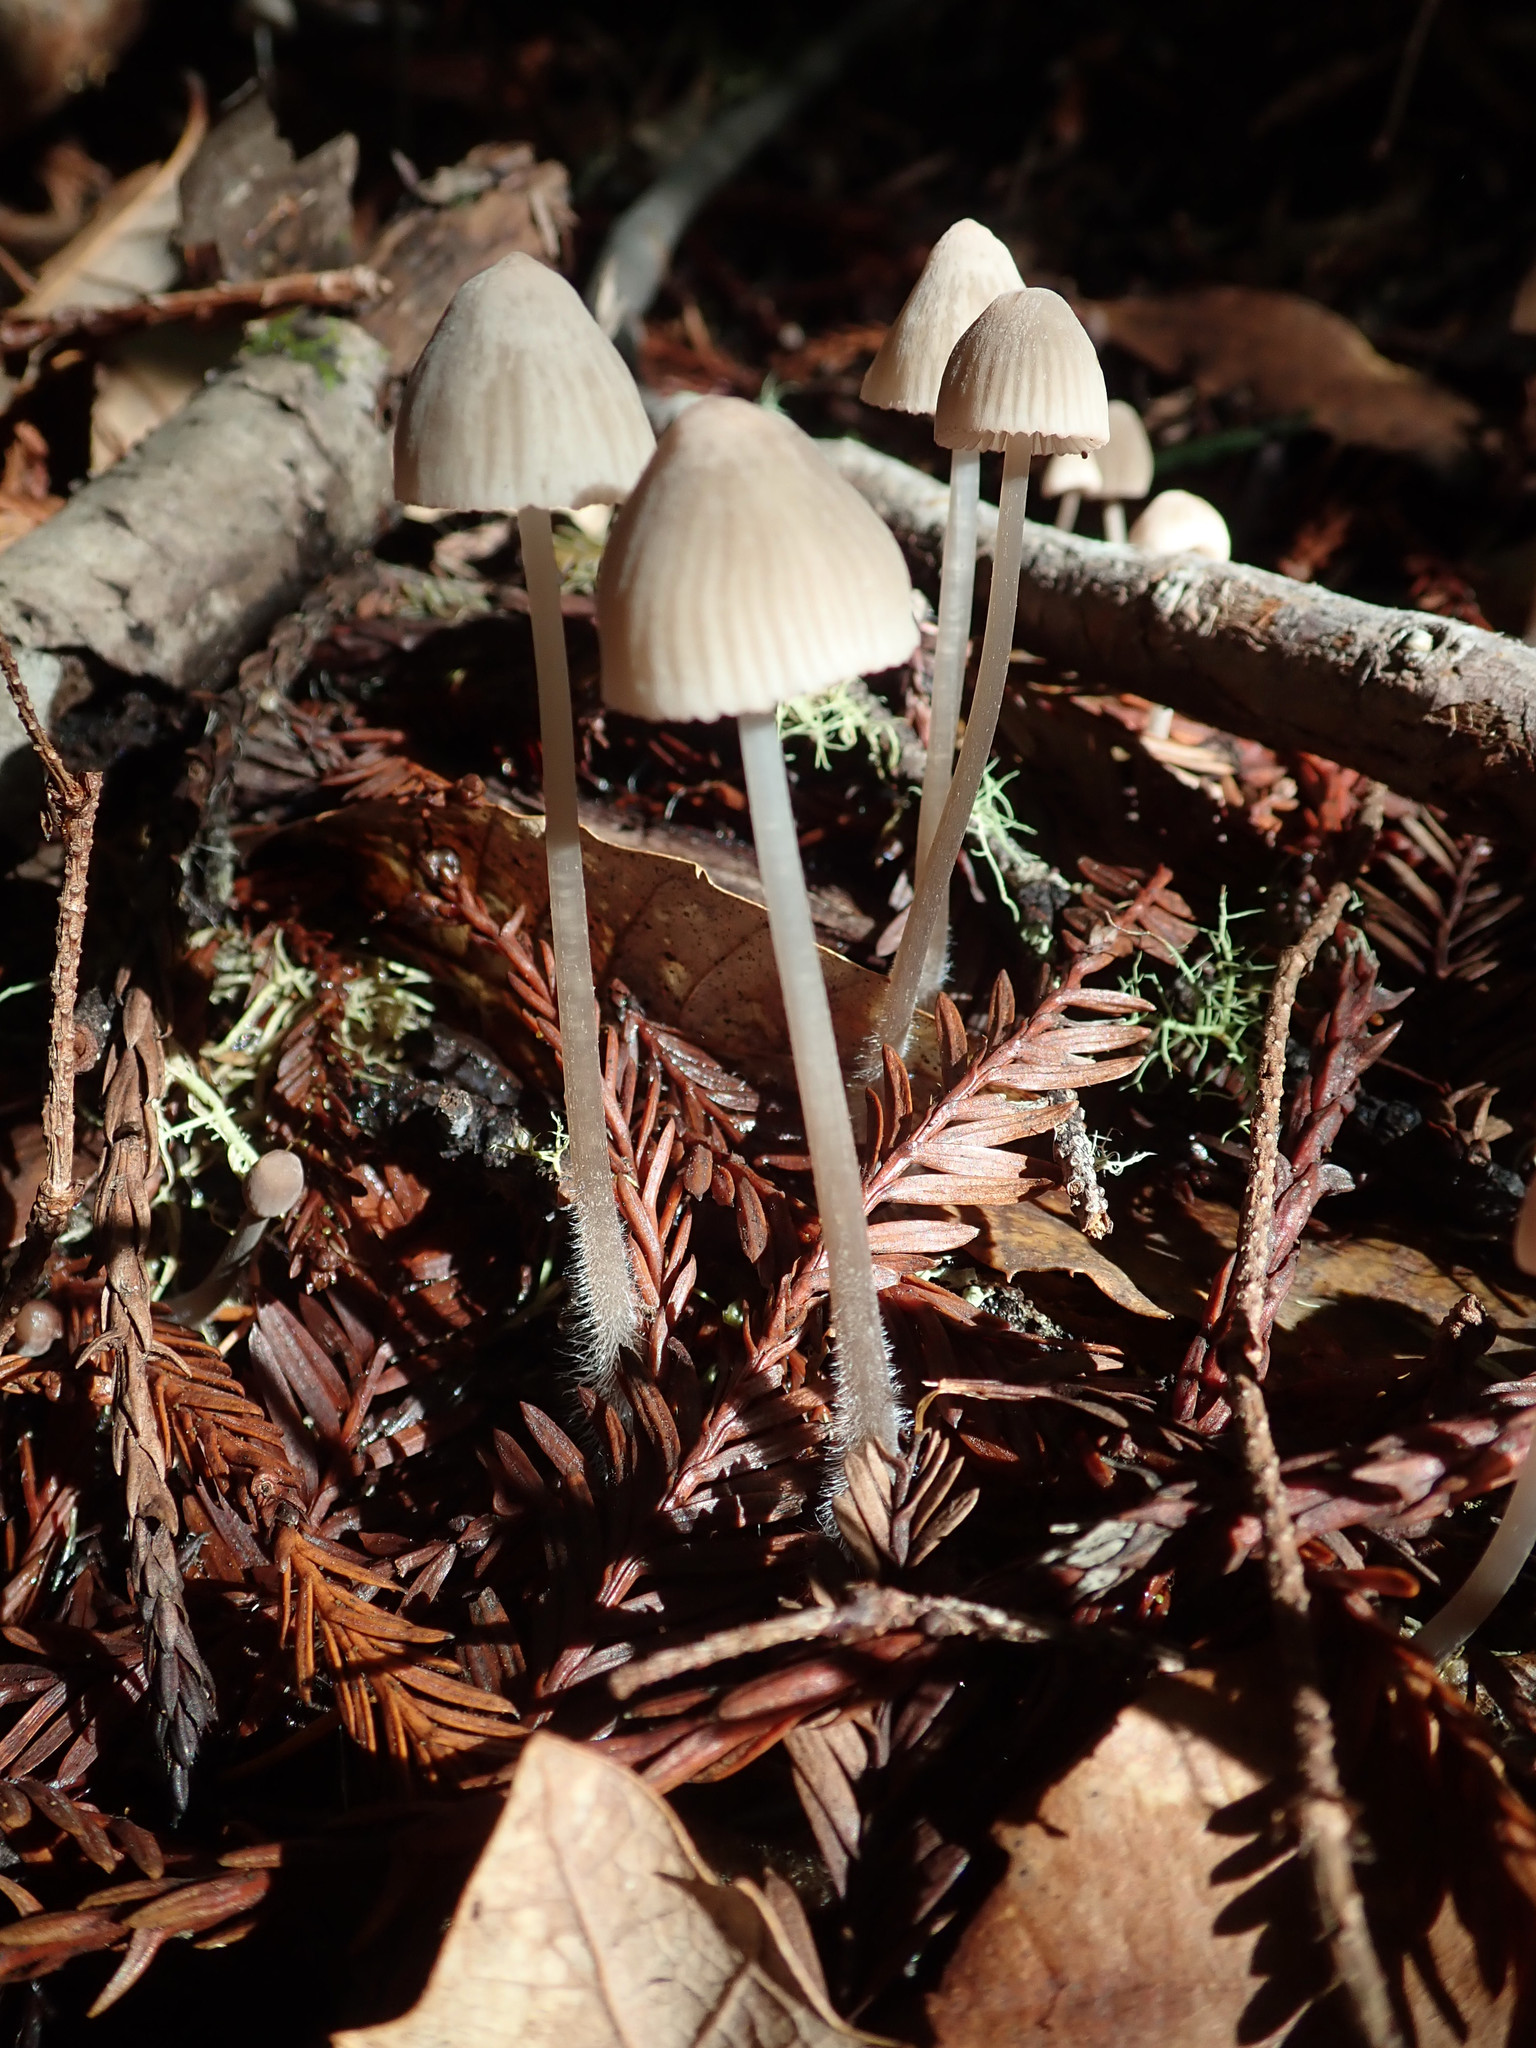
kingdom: Fungi
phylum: Basidiomycota
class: Agaricomycetes
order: Agaricales
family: Mycenaceae
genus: Mycena
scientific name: Mycena capillaripes
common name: Pinkedge bonnet
